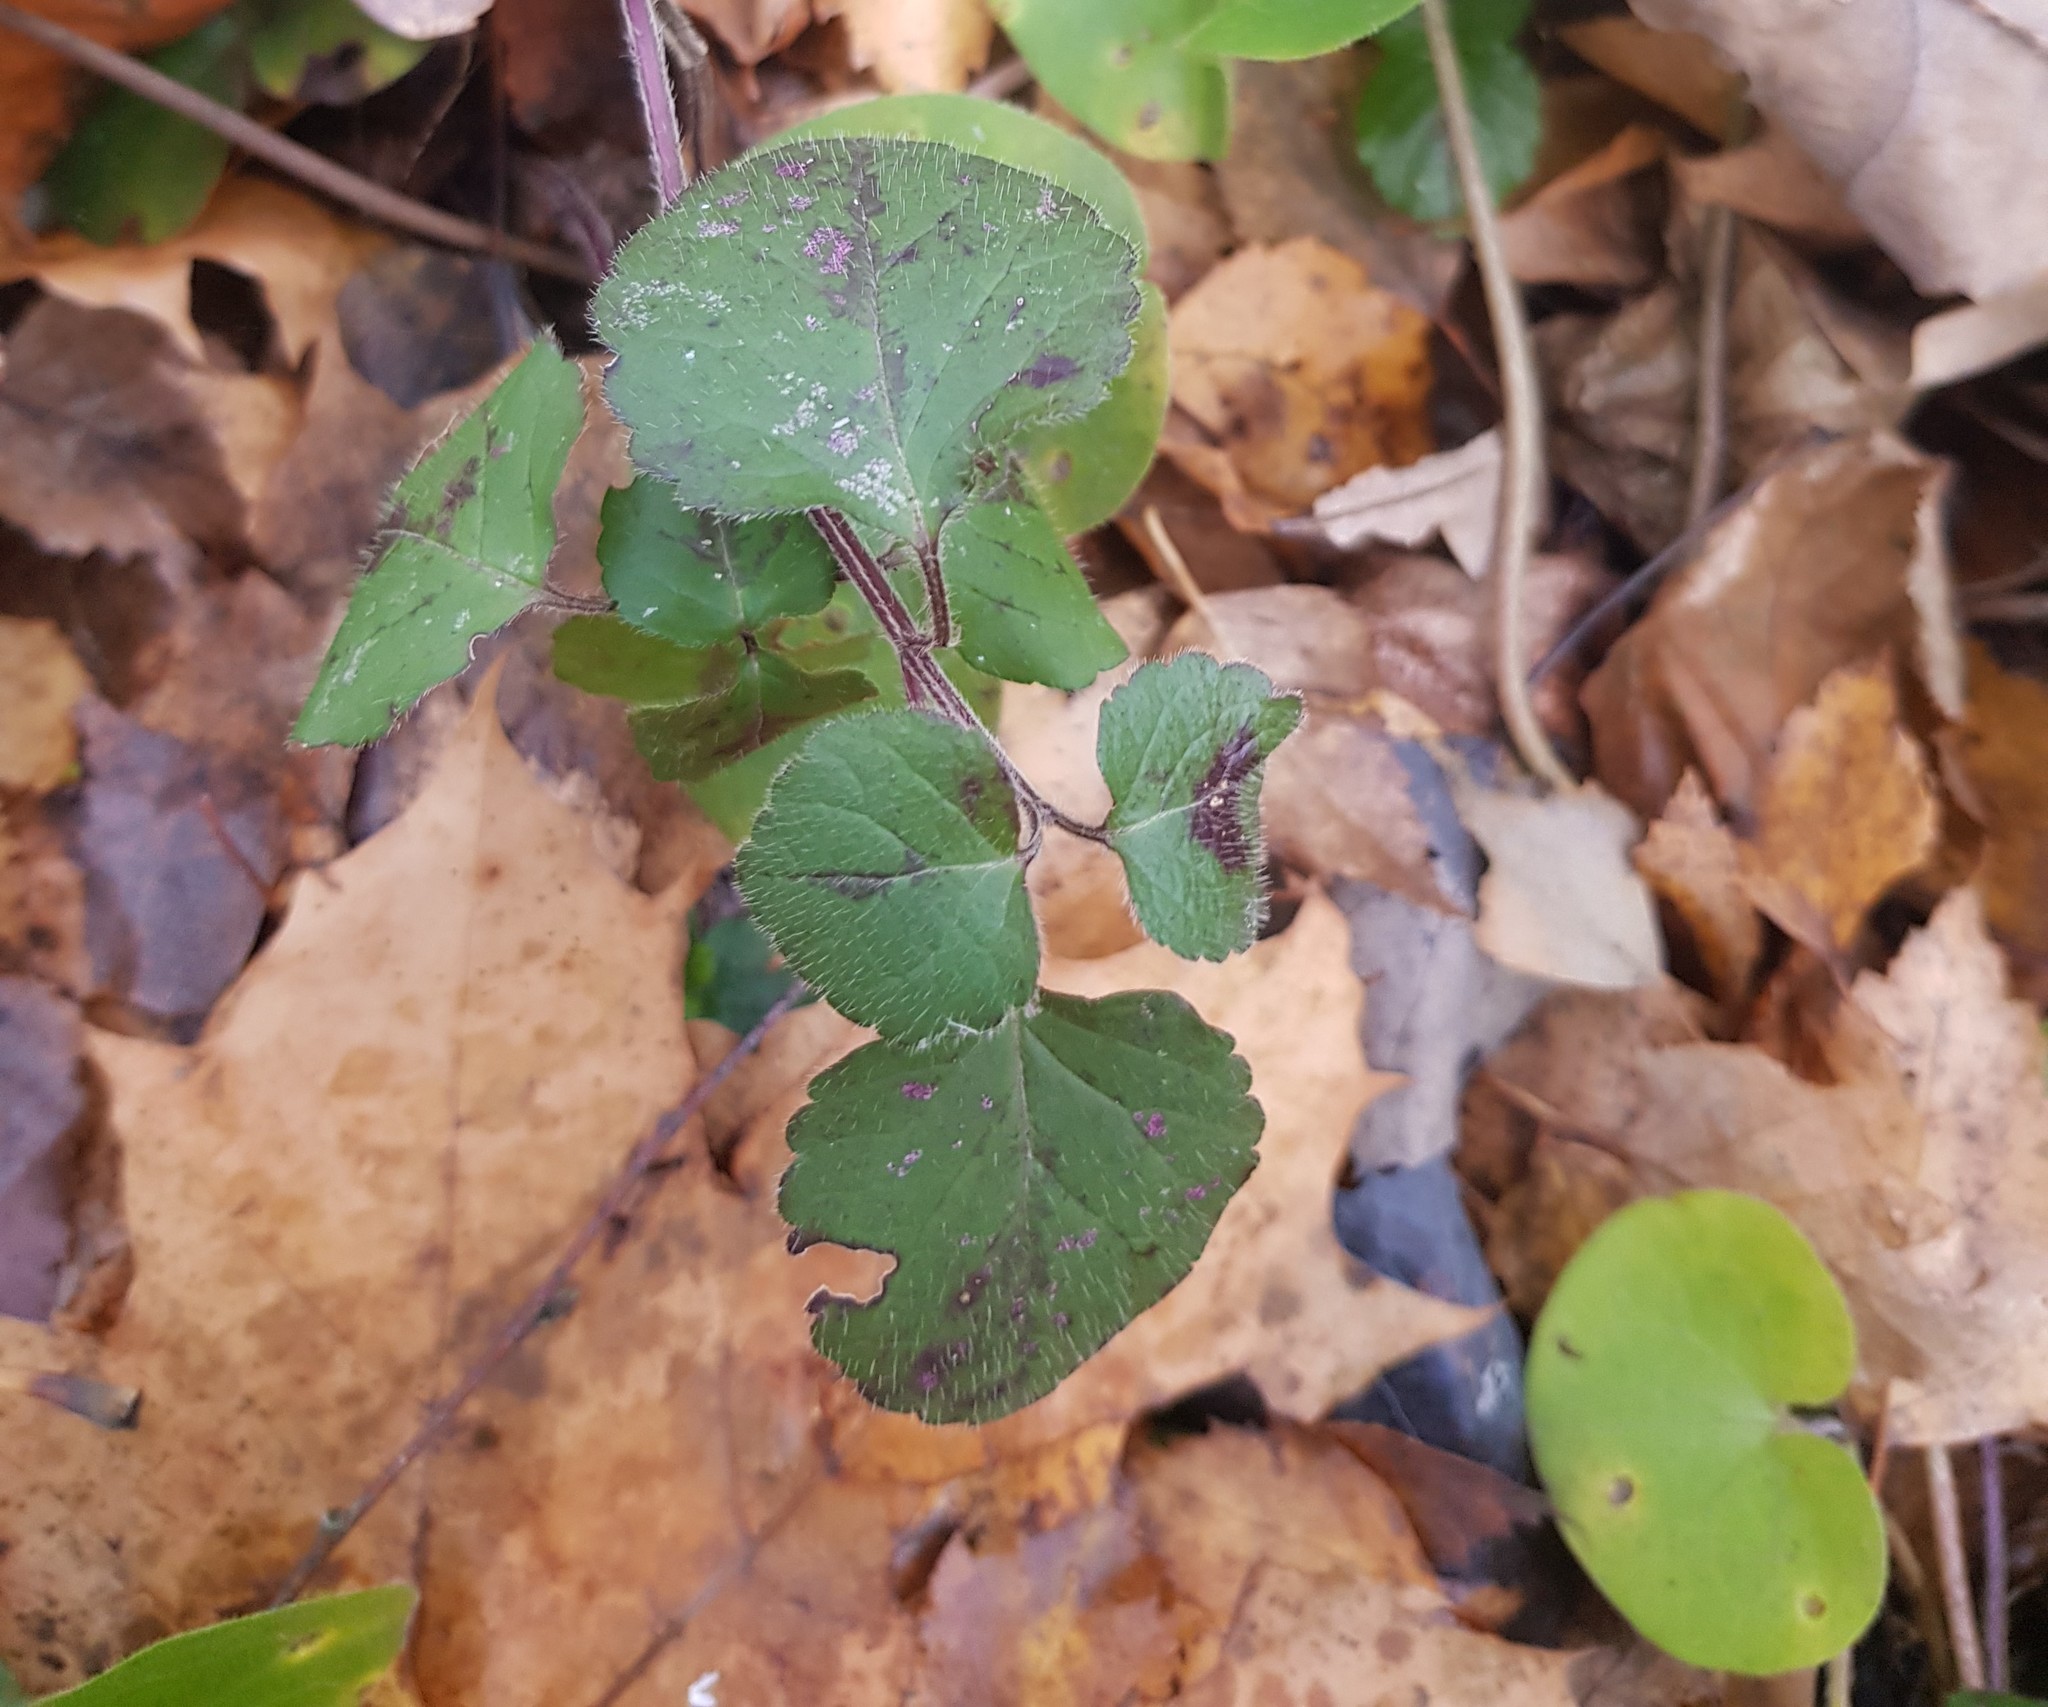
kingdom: Plantae
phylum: Tracheophyta
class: Magnoliopsida
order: Lamiales
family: Lamiaceae
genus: Lamium
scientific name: Lamium galeobdolon
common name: Yellow archangel
